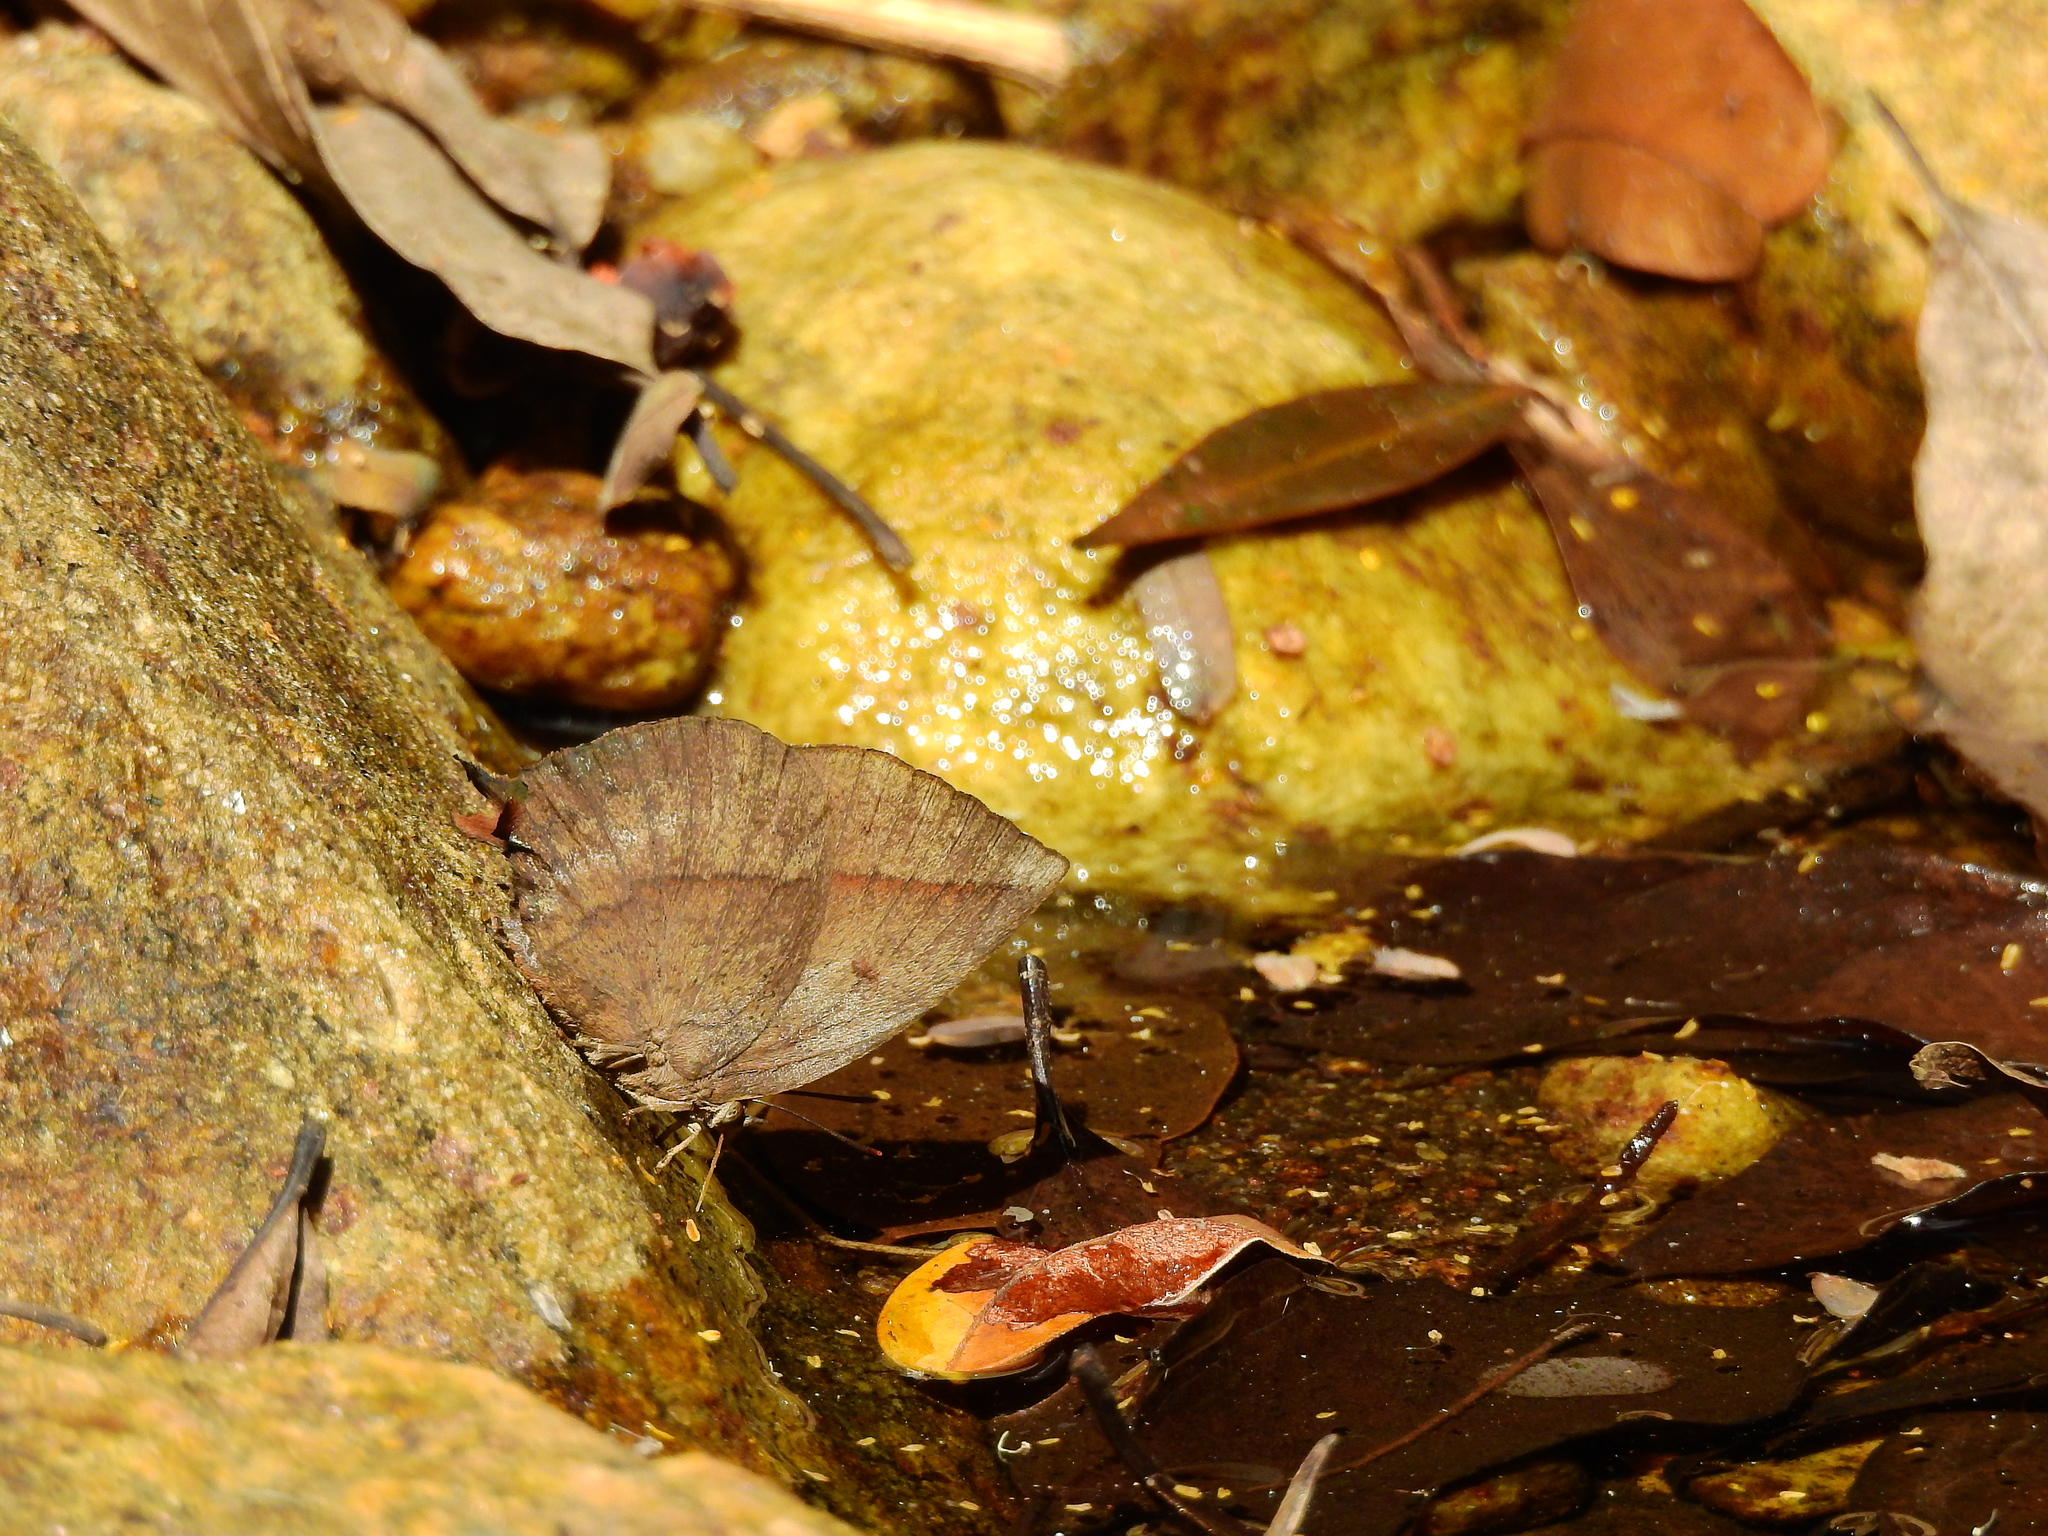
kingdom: Animalia
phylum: Arthropoda
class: Insecta
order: Lepidoptera
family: Lycaenidae
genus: Amblypodia
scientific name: Amblypodia anita
